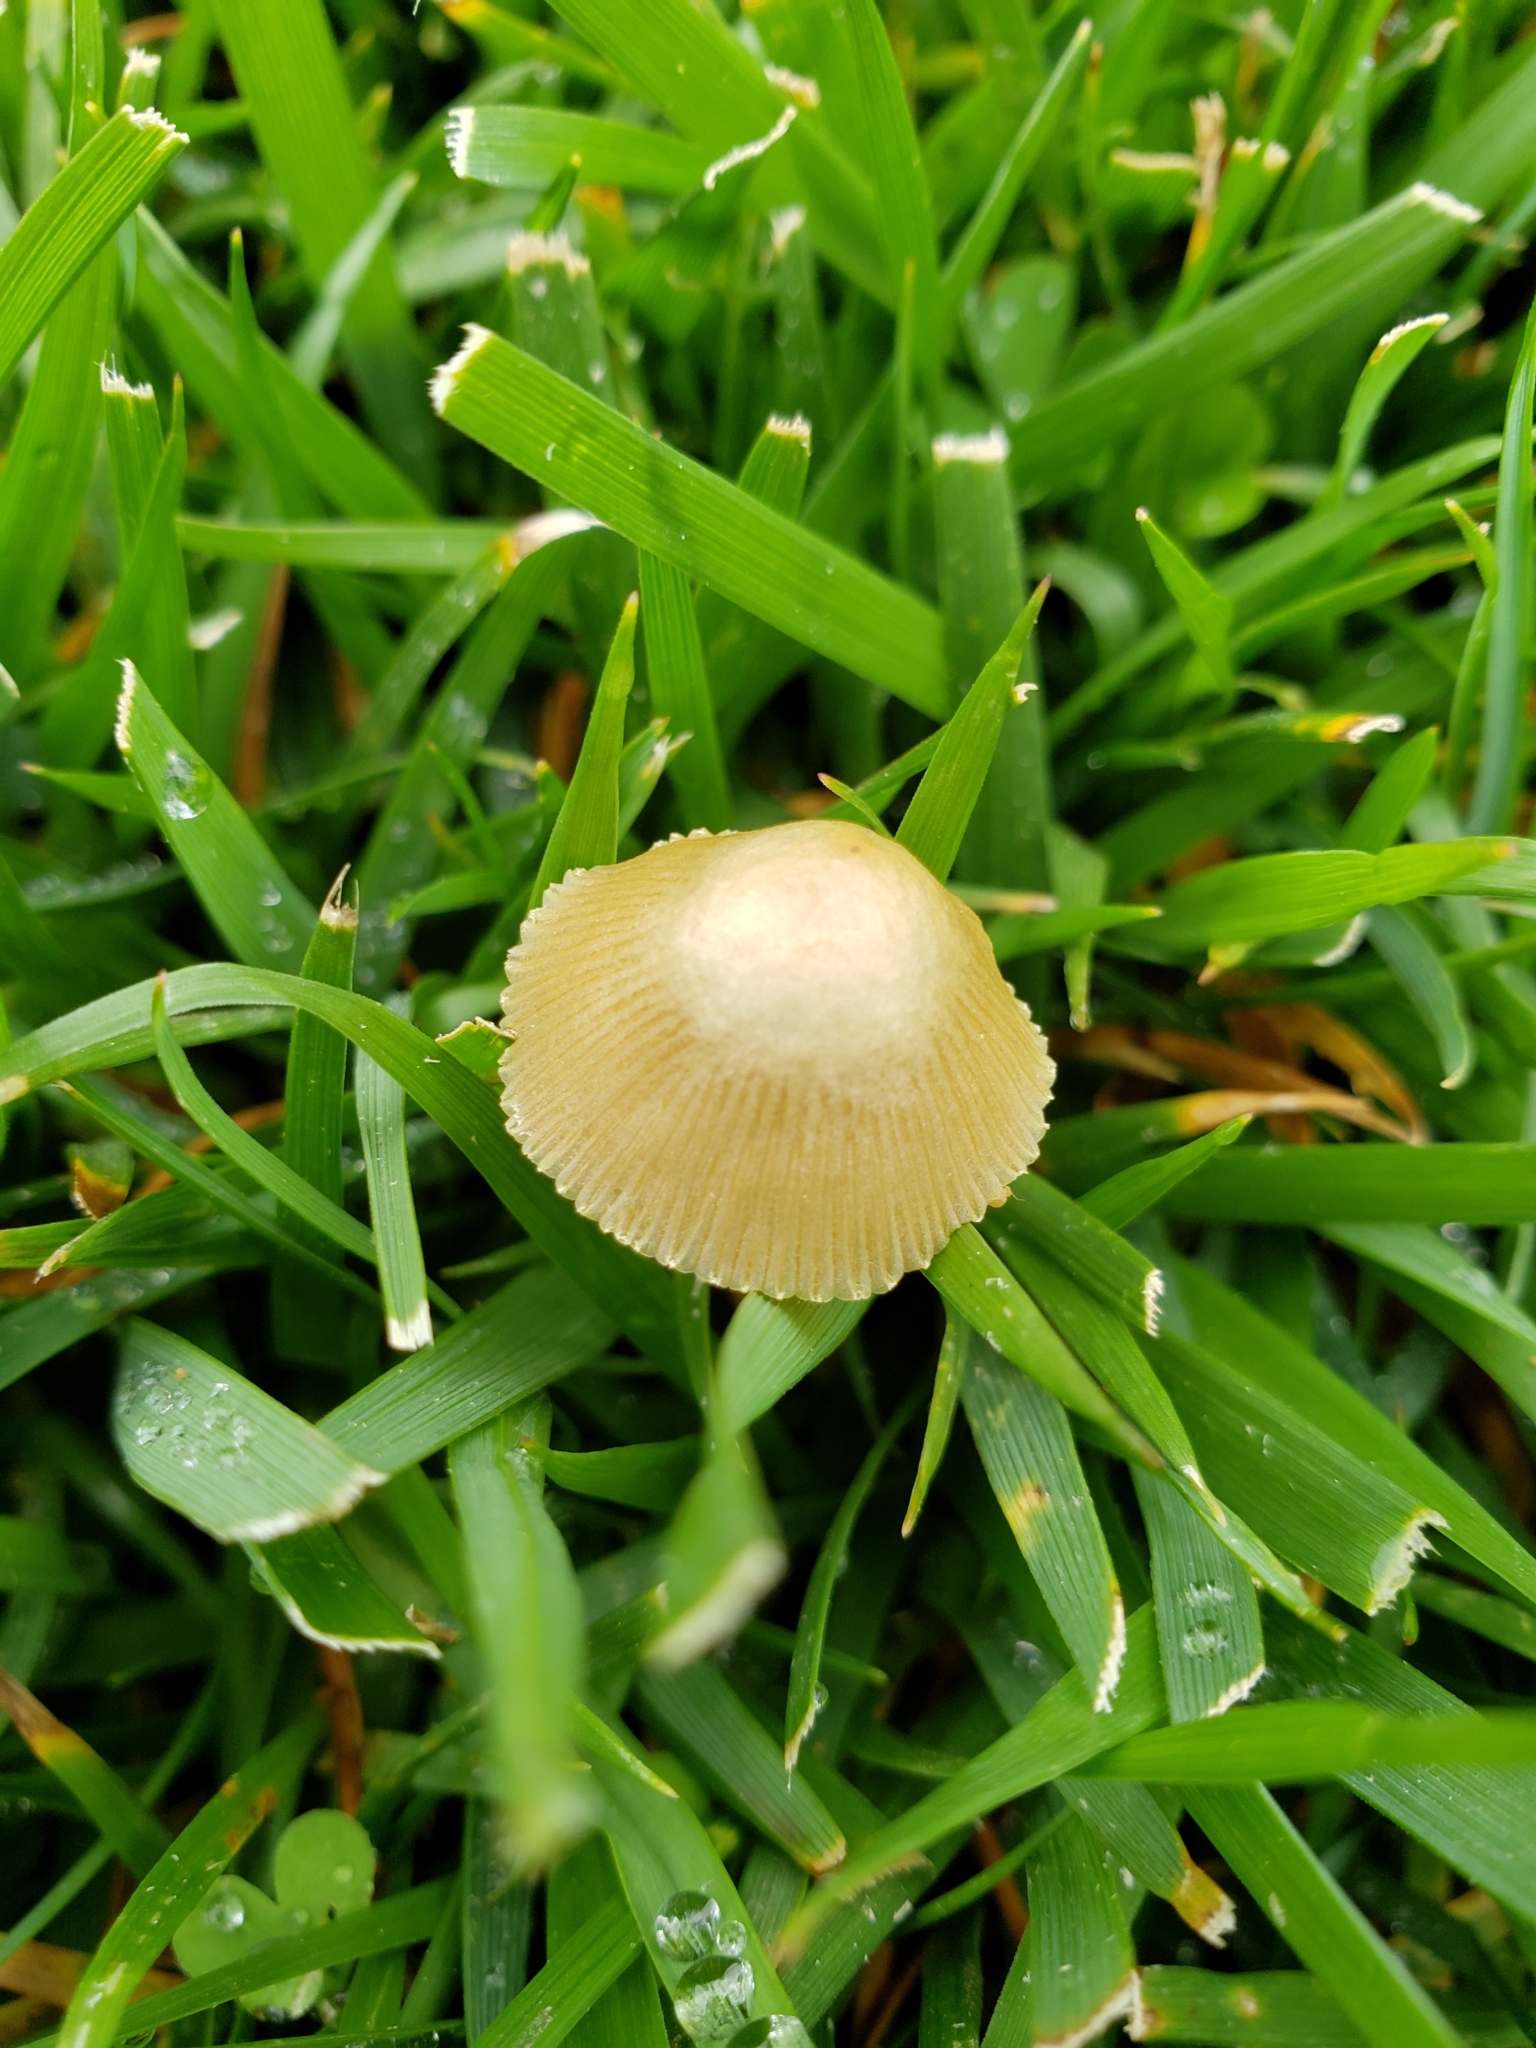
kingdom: Fungi
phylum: Basidiomycota
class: Agaricomycetes
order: Agaricales
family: Bolbitiaceae
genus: Bolbitius
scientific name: Bolbitius titubans
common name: Yellow fieldcap
